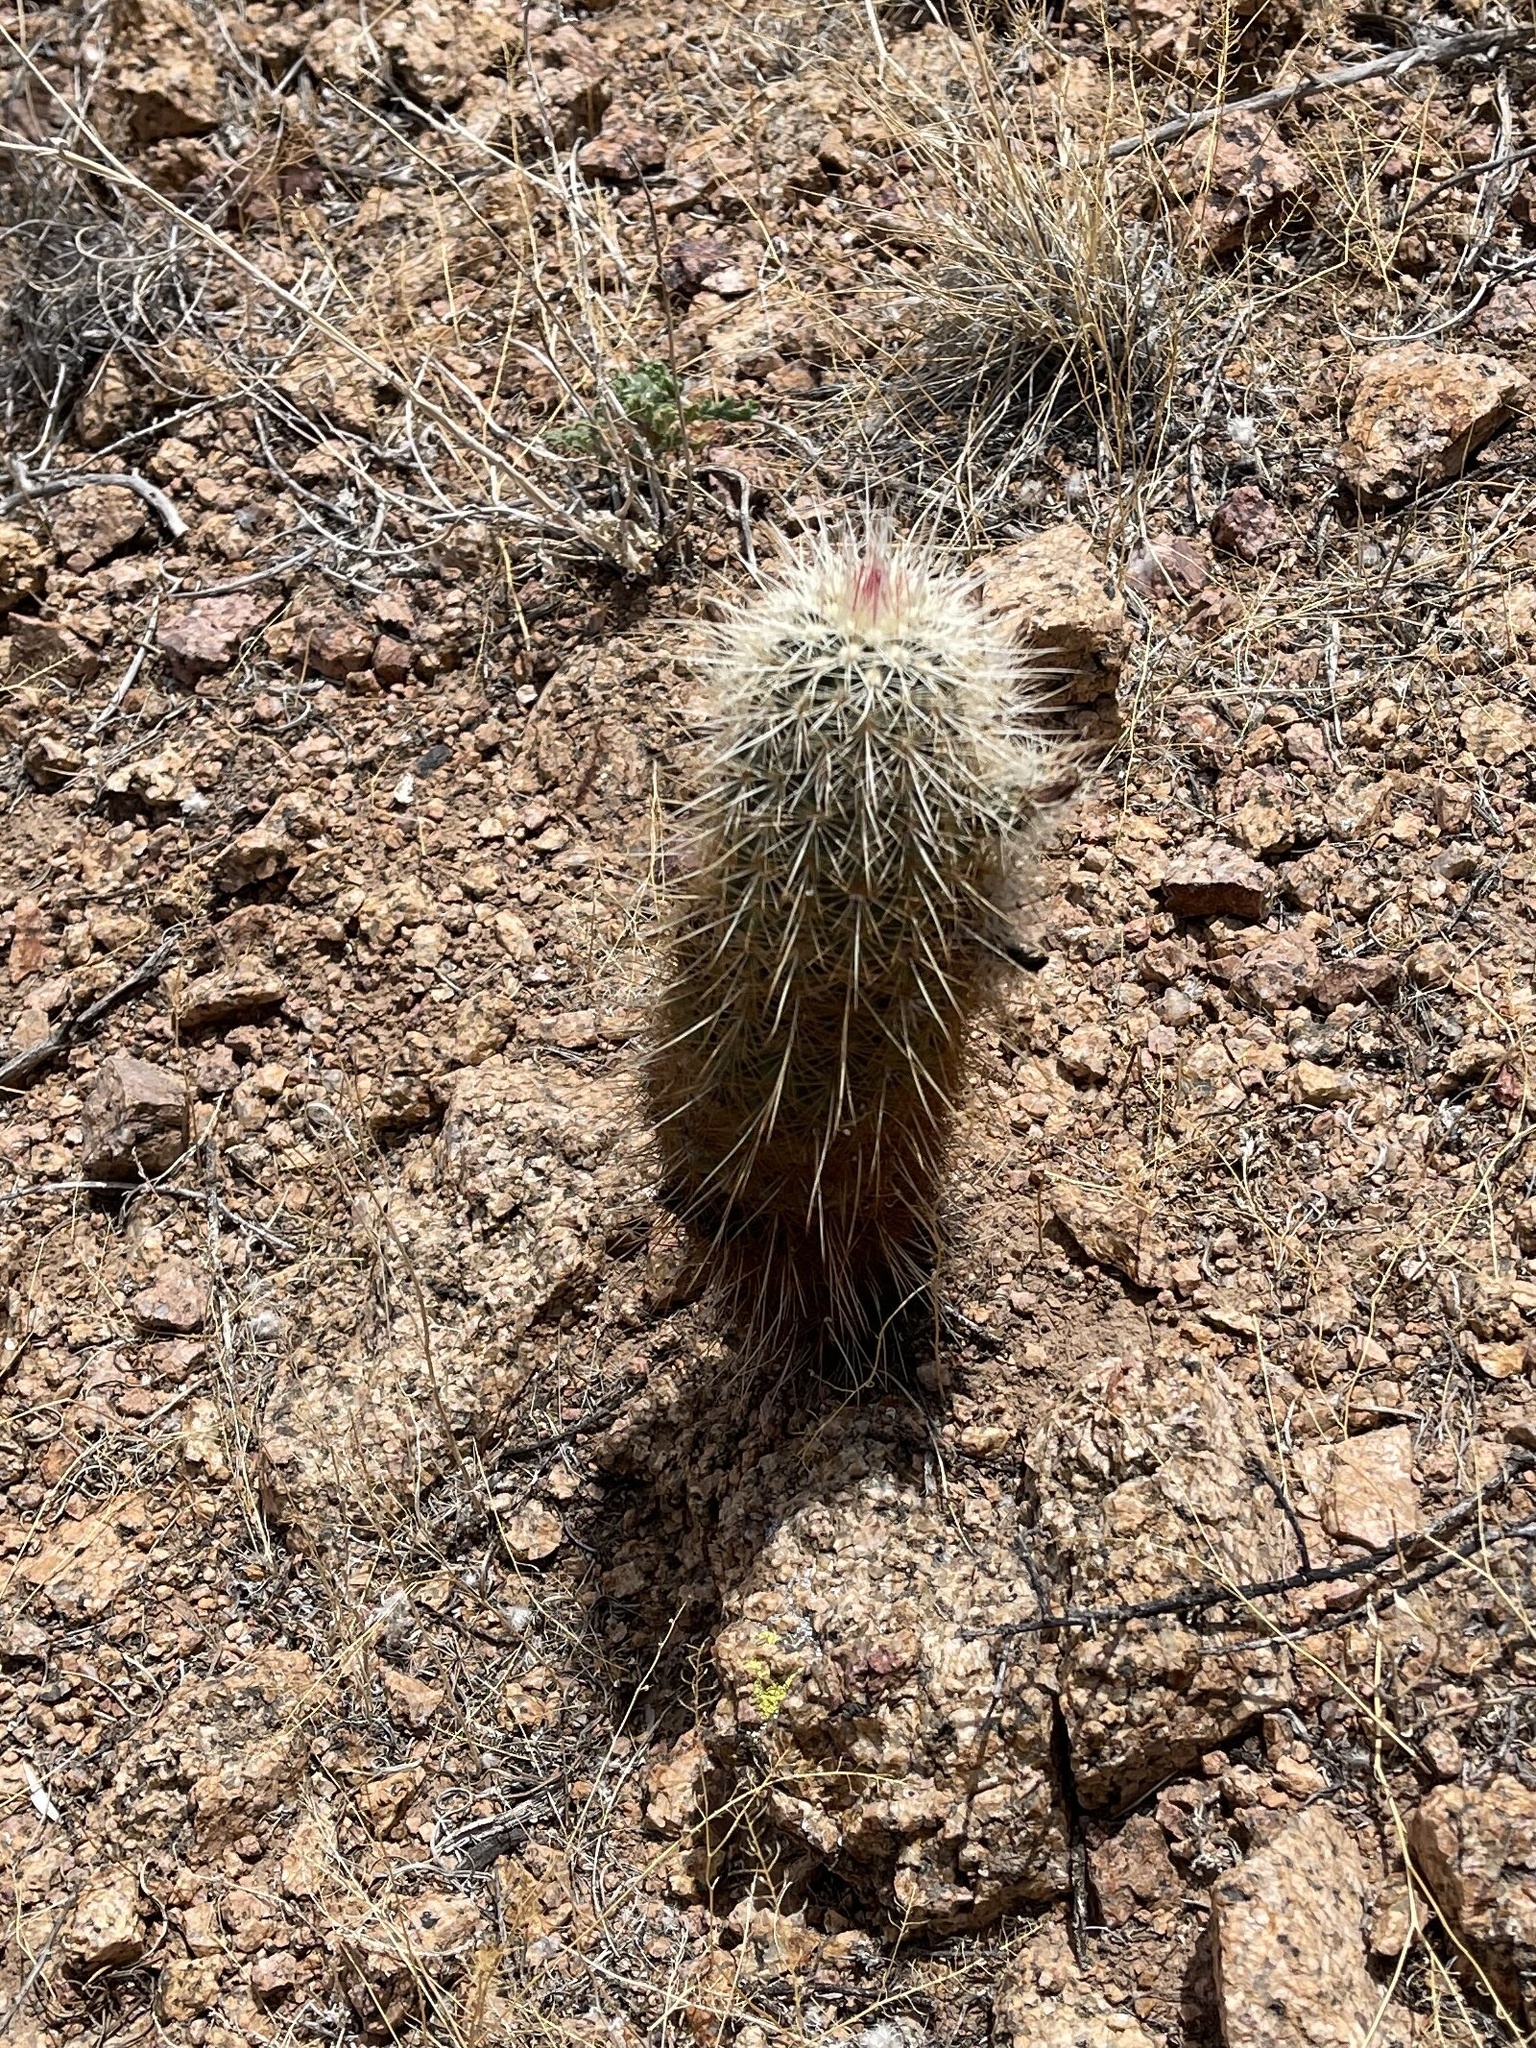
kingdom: Plantae
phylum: Tracheophyta
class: Magnoliopsida
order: Caryophyllales
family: Cactaceae
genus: Echinocereus
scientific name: Echinocereus viridiflorus
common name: Nylon hedgehog cactus
